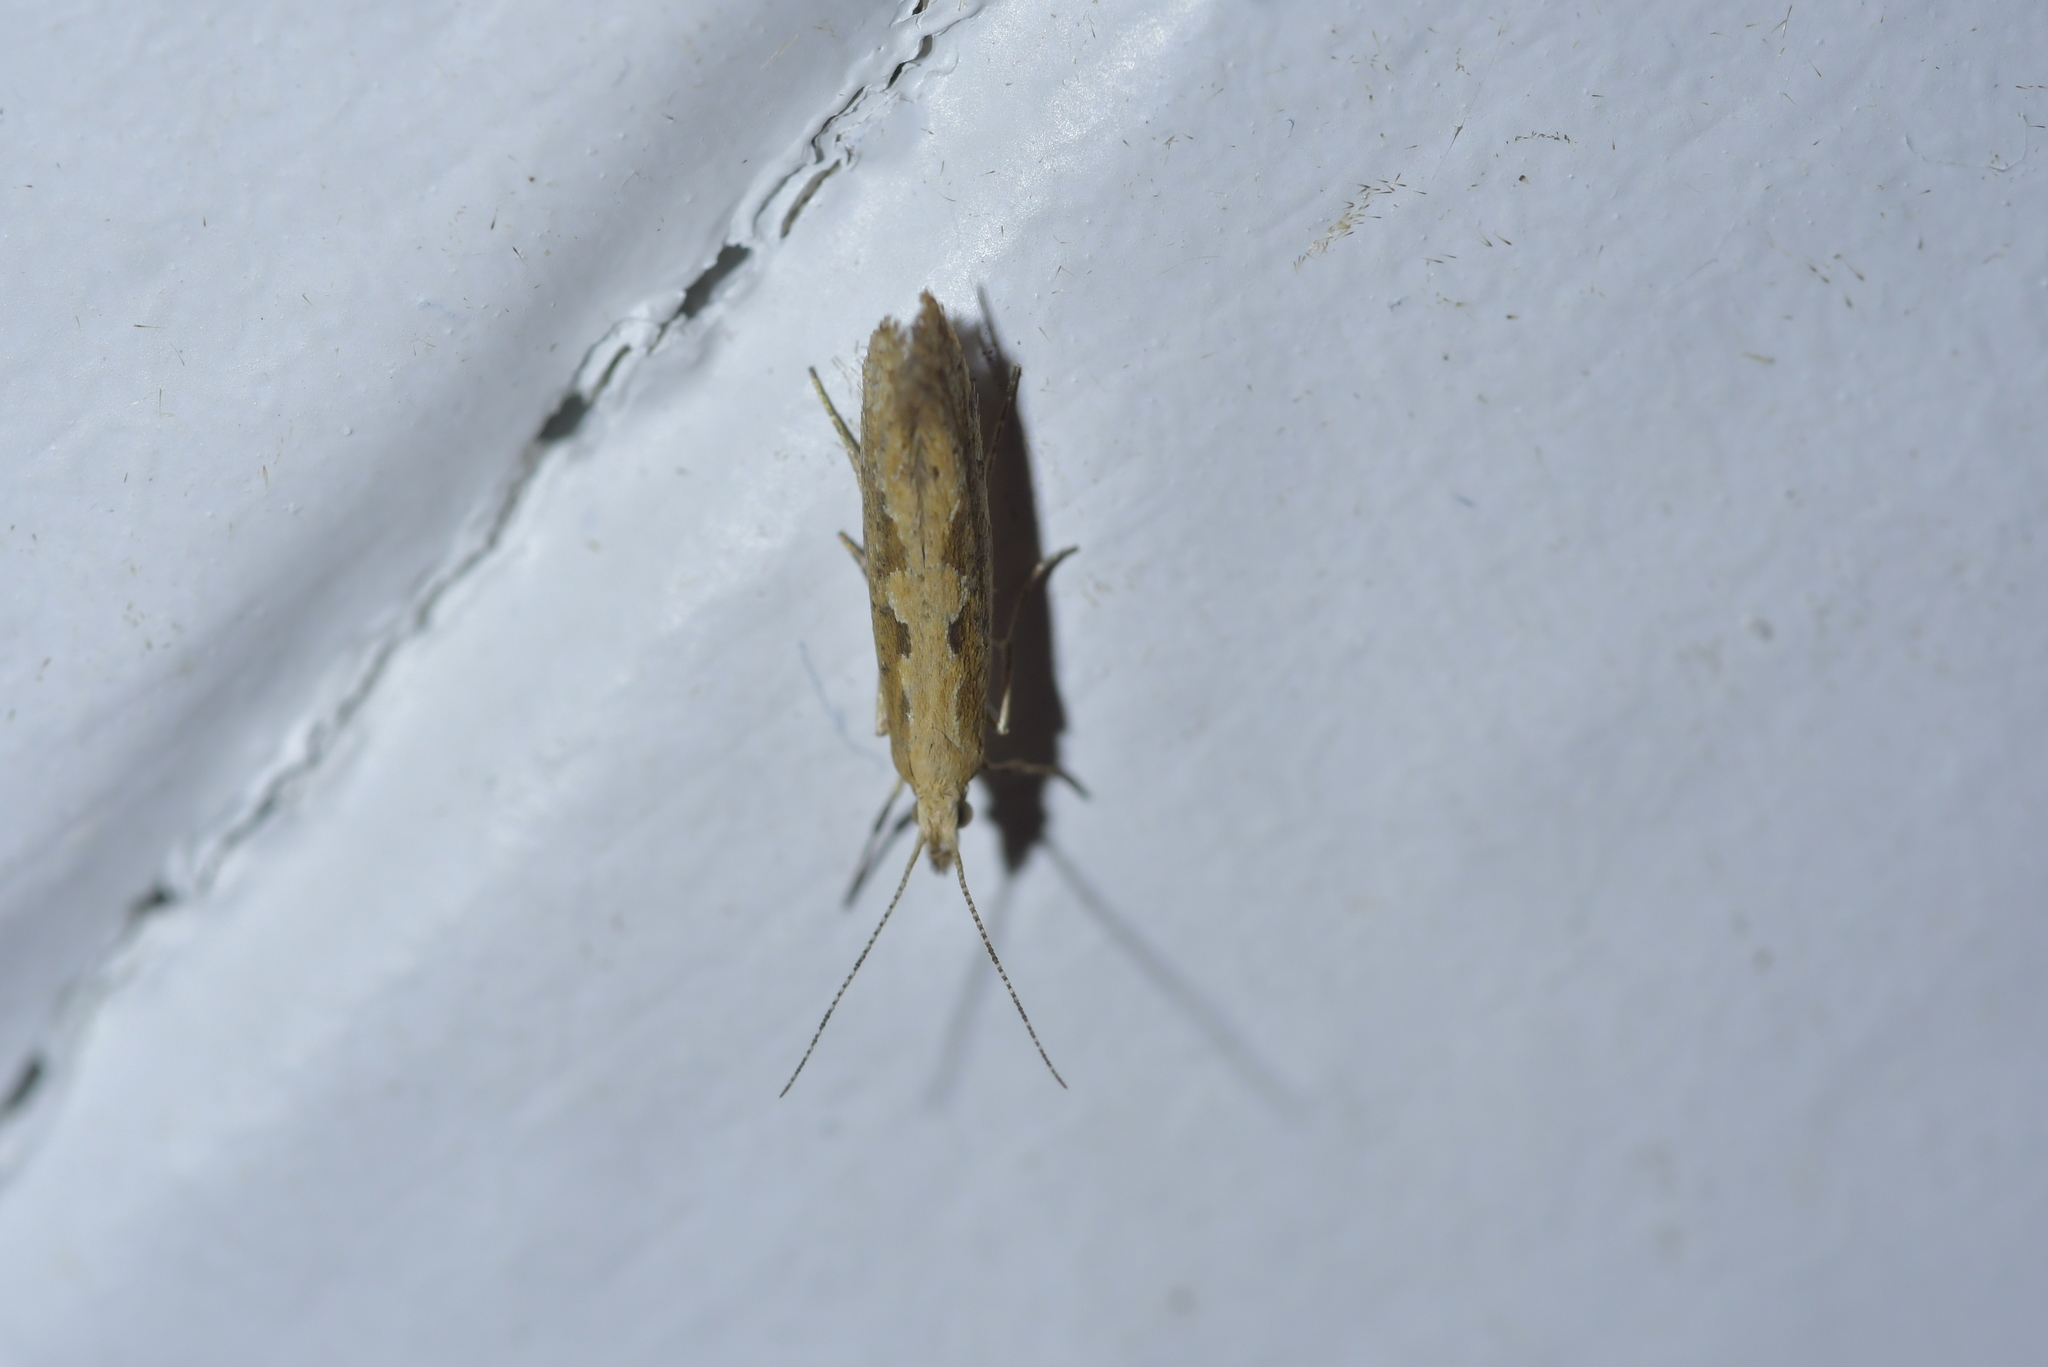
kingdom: Animalia
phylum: Arthropoda
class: Insecta
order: Lepidoptera
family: Plutellidae
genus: Plutella
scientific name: Plutella xylostella
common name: Diamond-back moth
